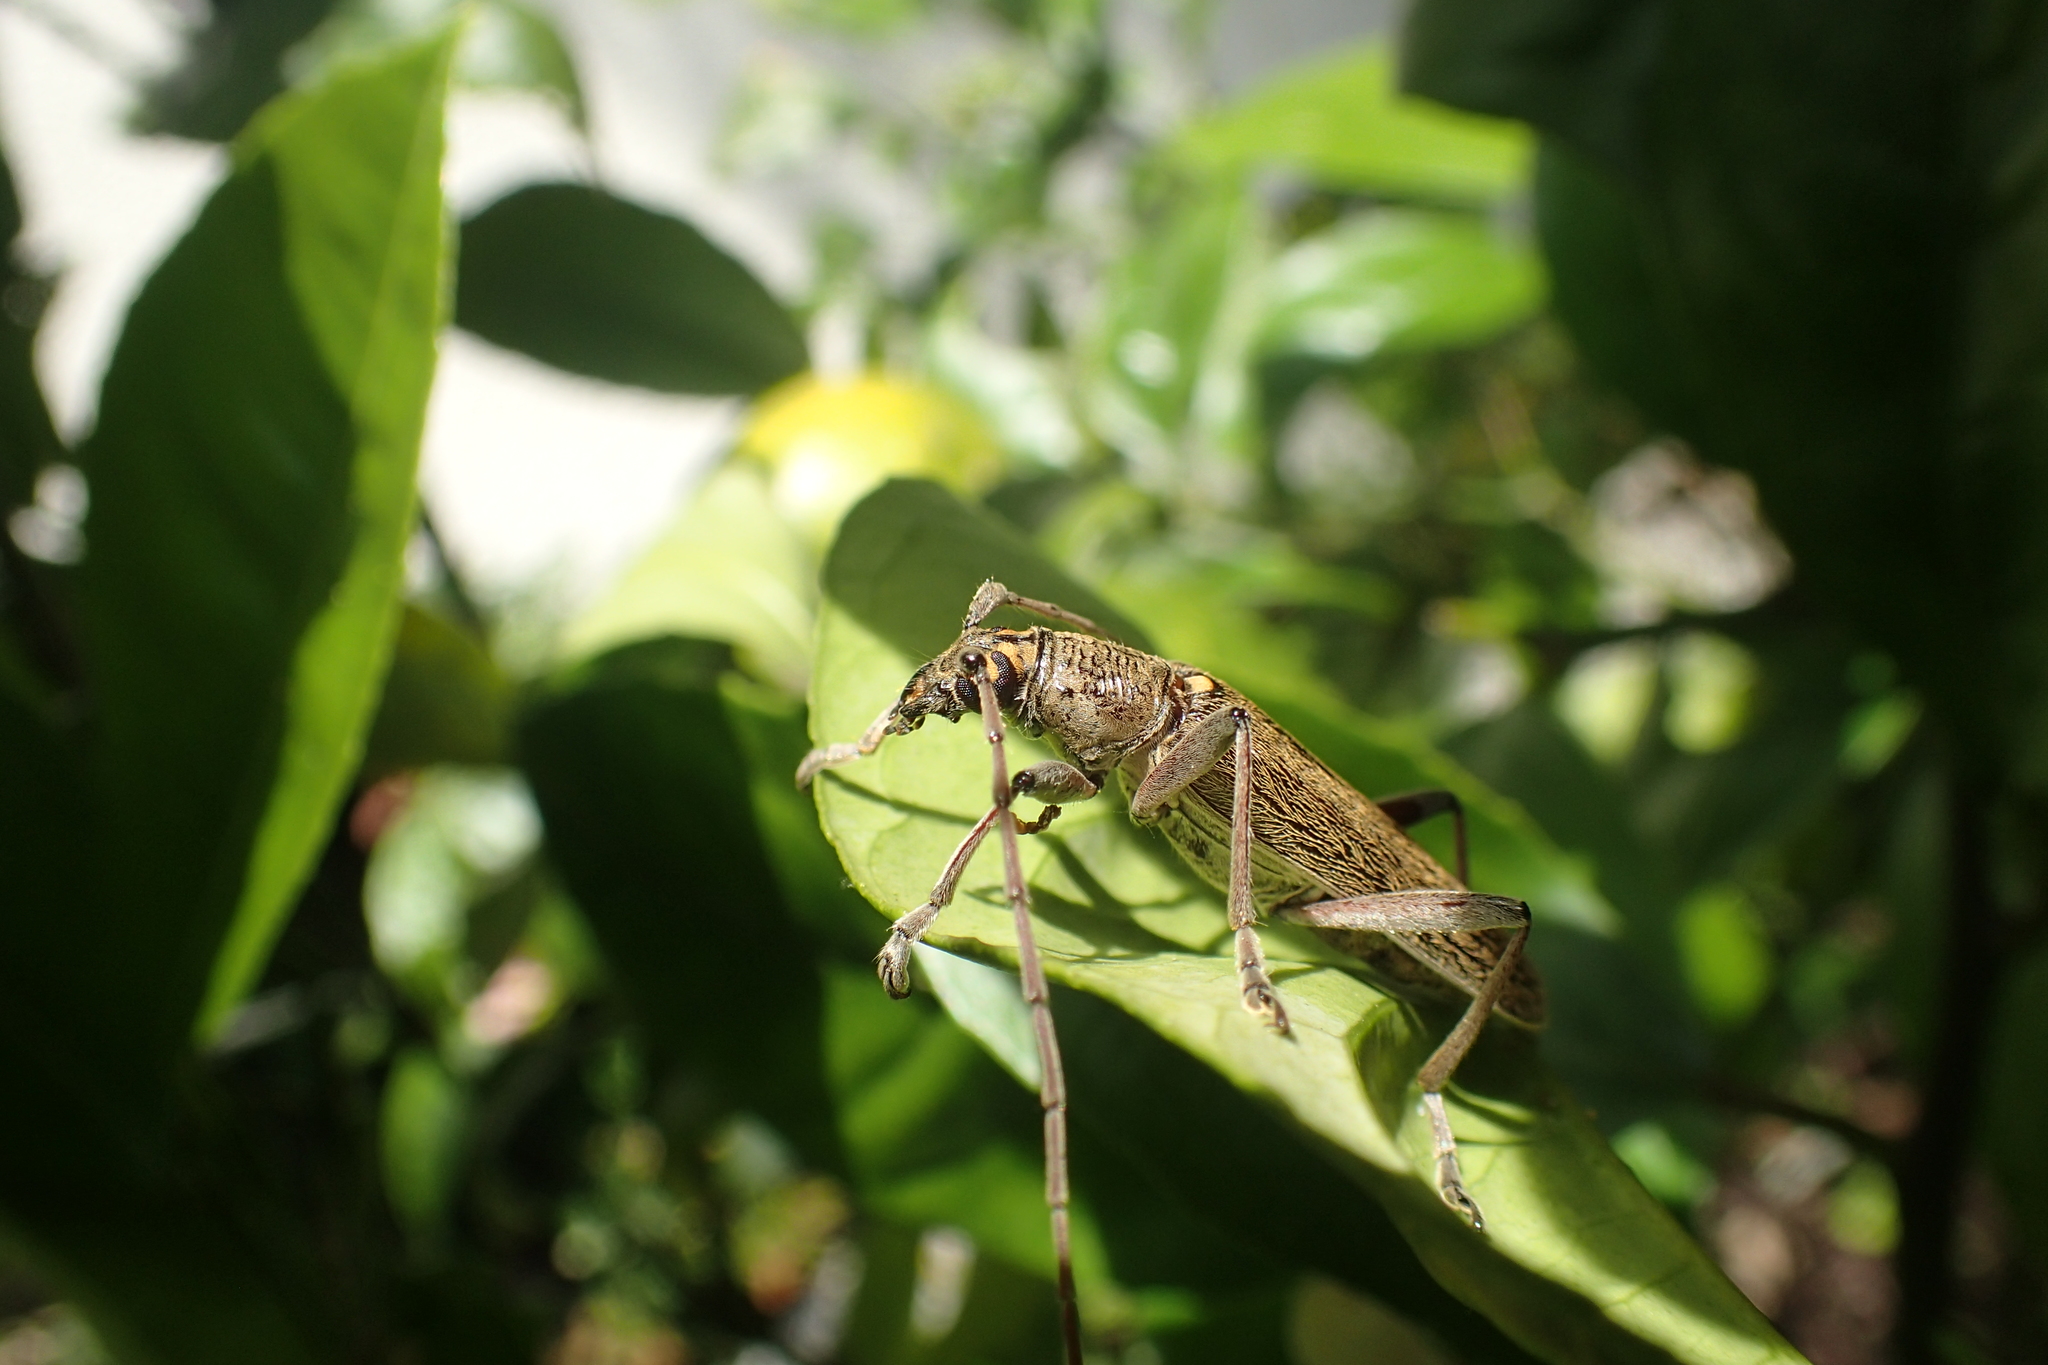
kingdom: Animalia
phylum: Arthropoda
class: Insecta
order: Coleoptera
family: Cerambycidae
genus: Oemona
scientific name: Oemona hirta
